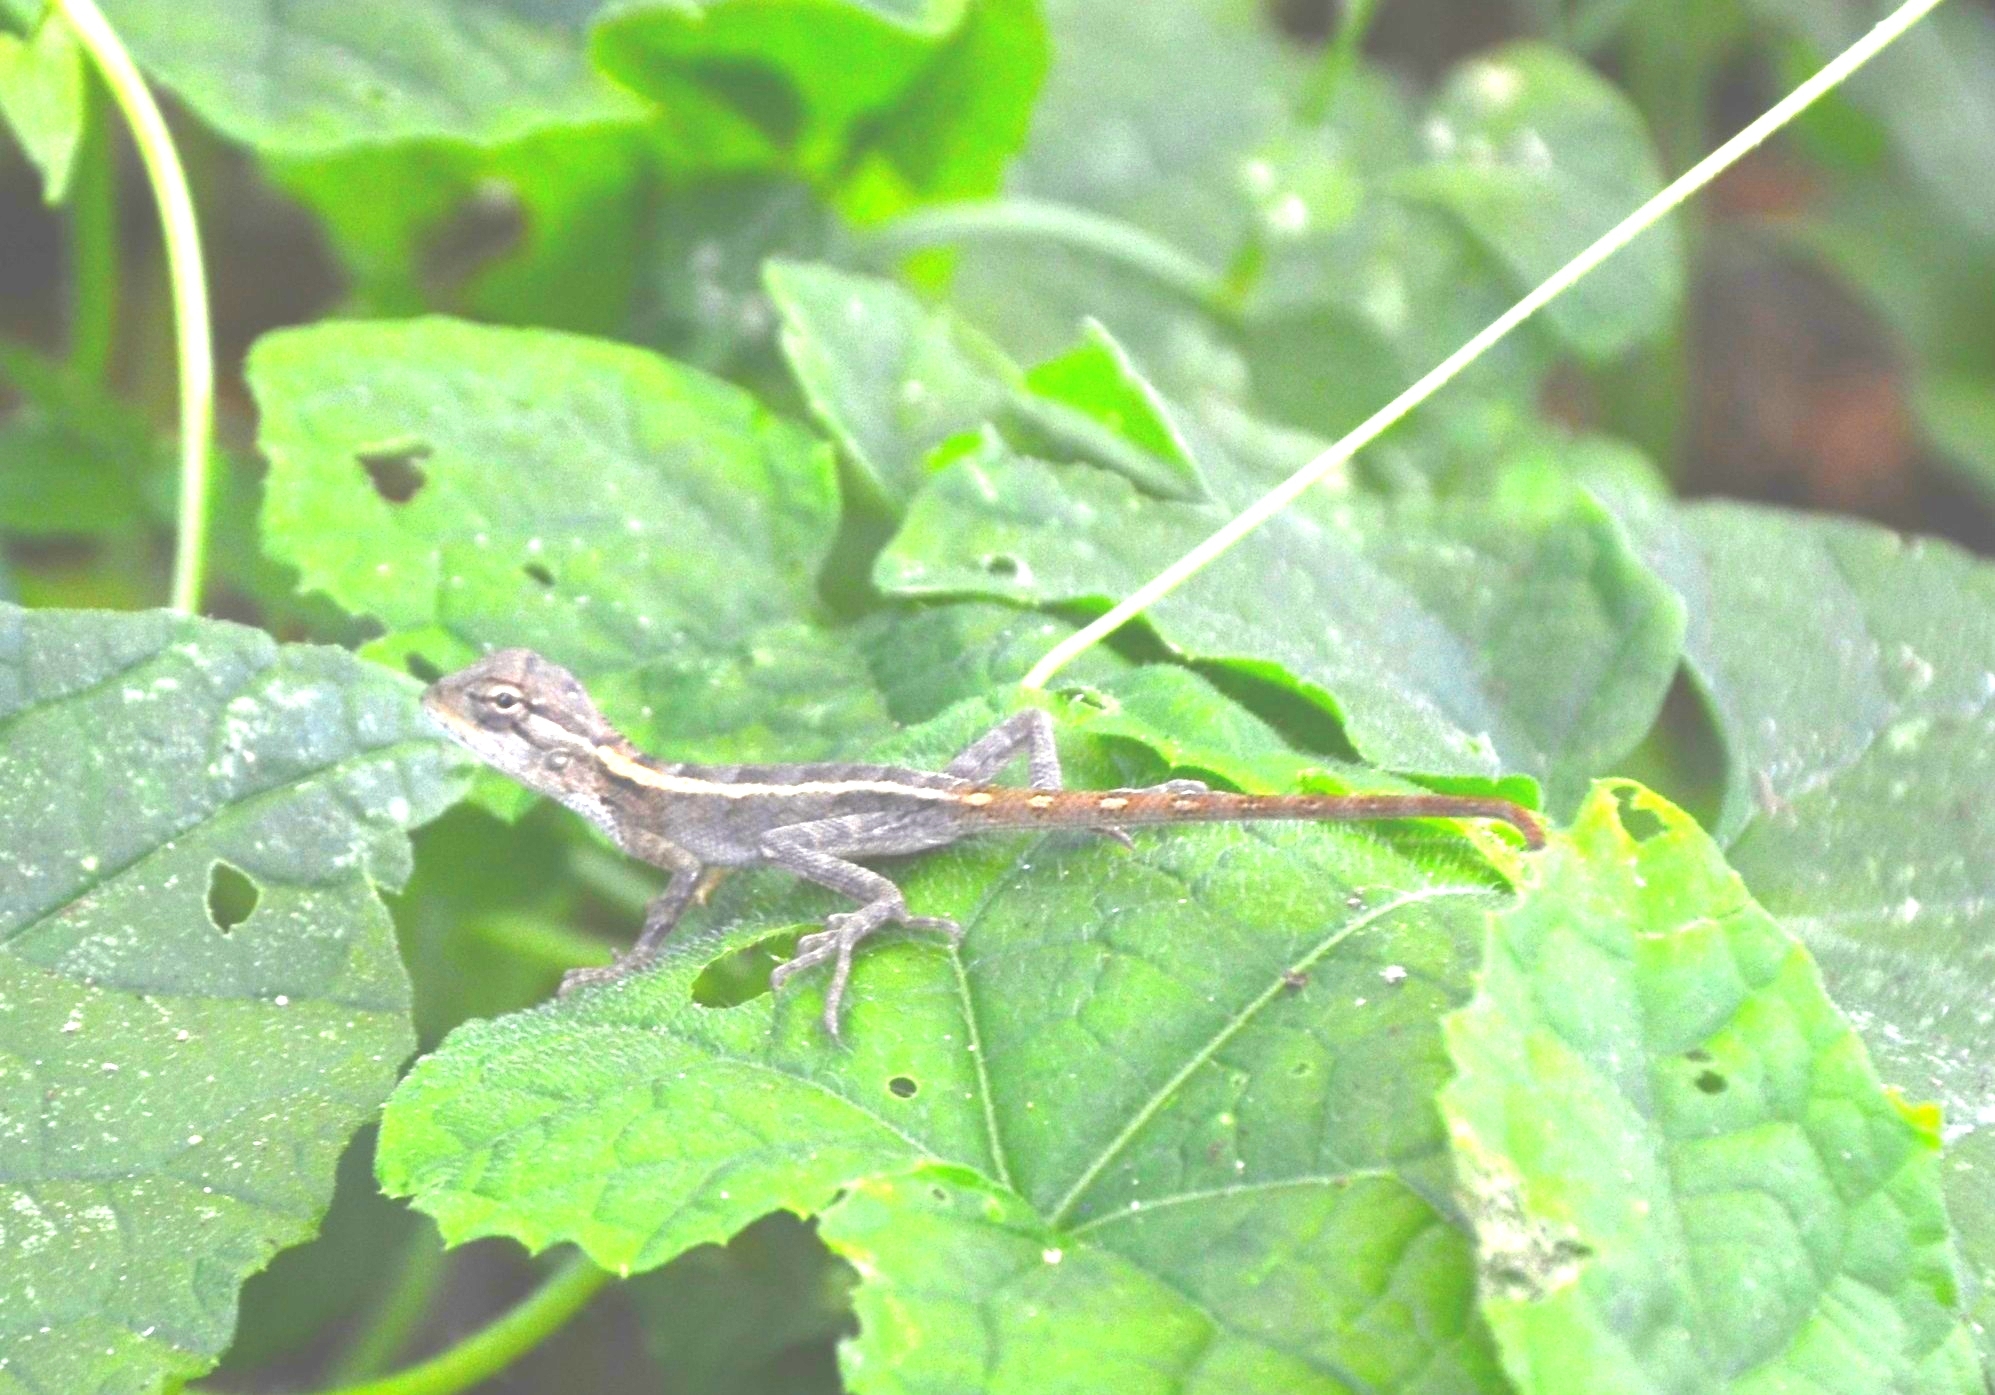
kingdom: Animalia
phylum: Chordata
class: Squamata
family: Agamidae
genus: Calotes
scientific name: Calotes versicolor
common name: Oriental garden lizard
